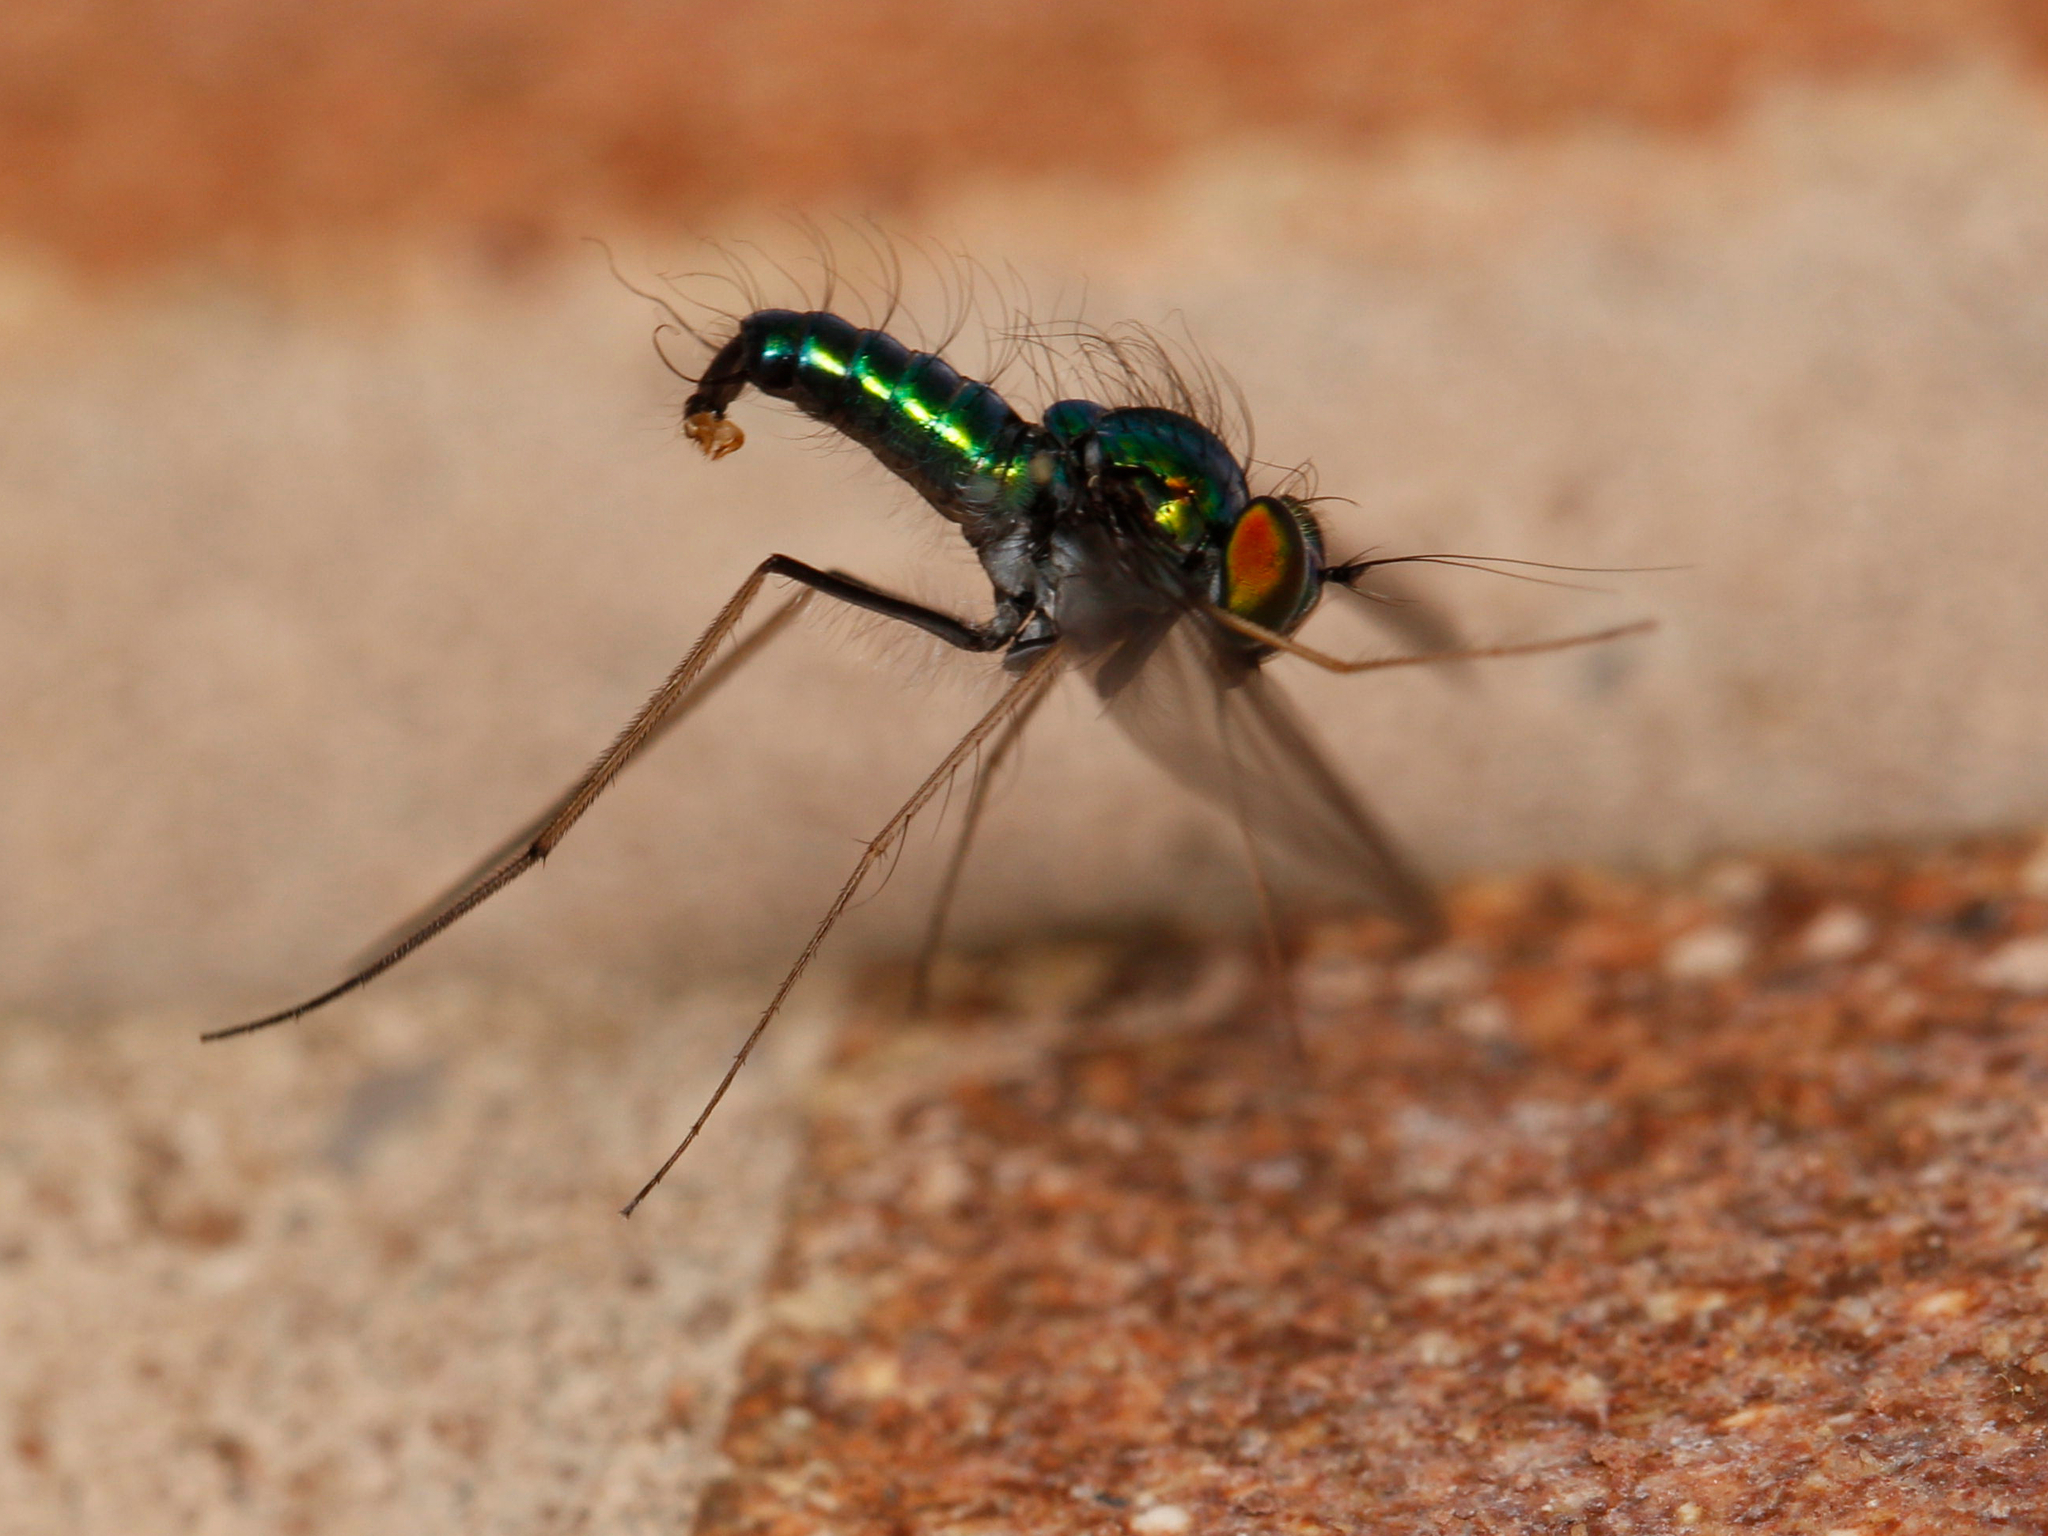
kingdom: Animalia
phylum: Arthropoda
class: Insecta
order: Diptera
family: Dolichopodidae
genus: Condylostylus
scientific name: Condylostylus comatus
